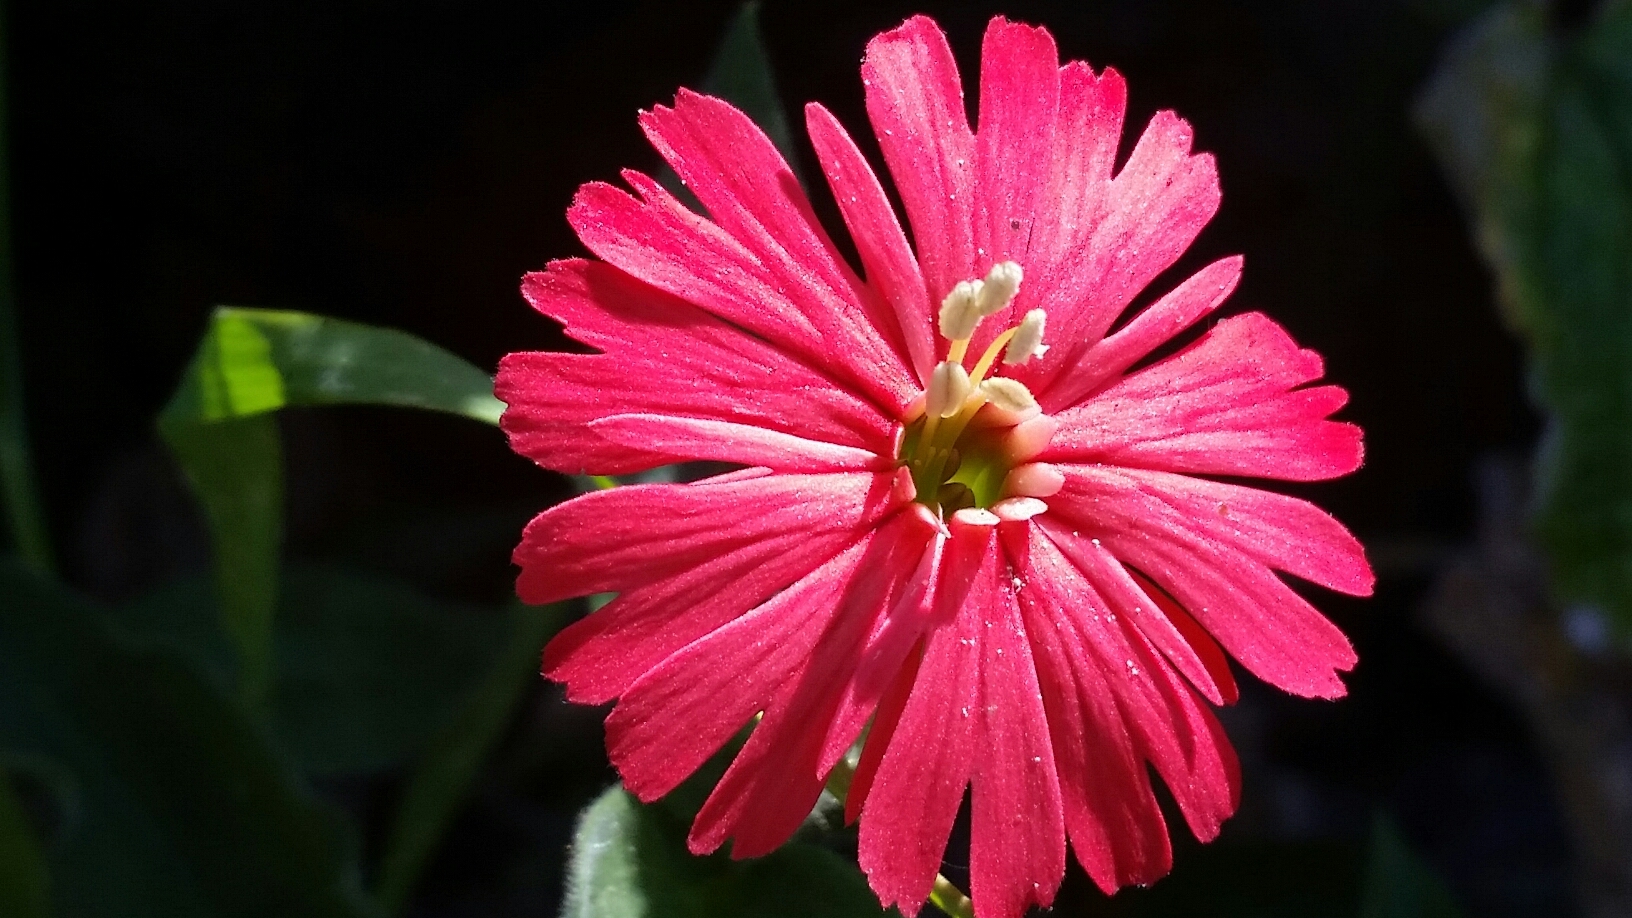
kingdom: Plantae
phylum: Tracheophyta
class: Magnoliopsida
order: Caryophyllales
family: Caryophyllaceae
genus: Silene
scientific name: Silene laciniata
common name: Indian-pink
